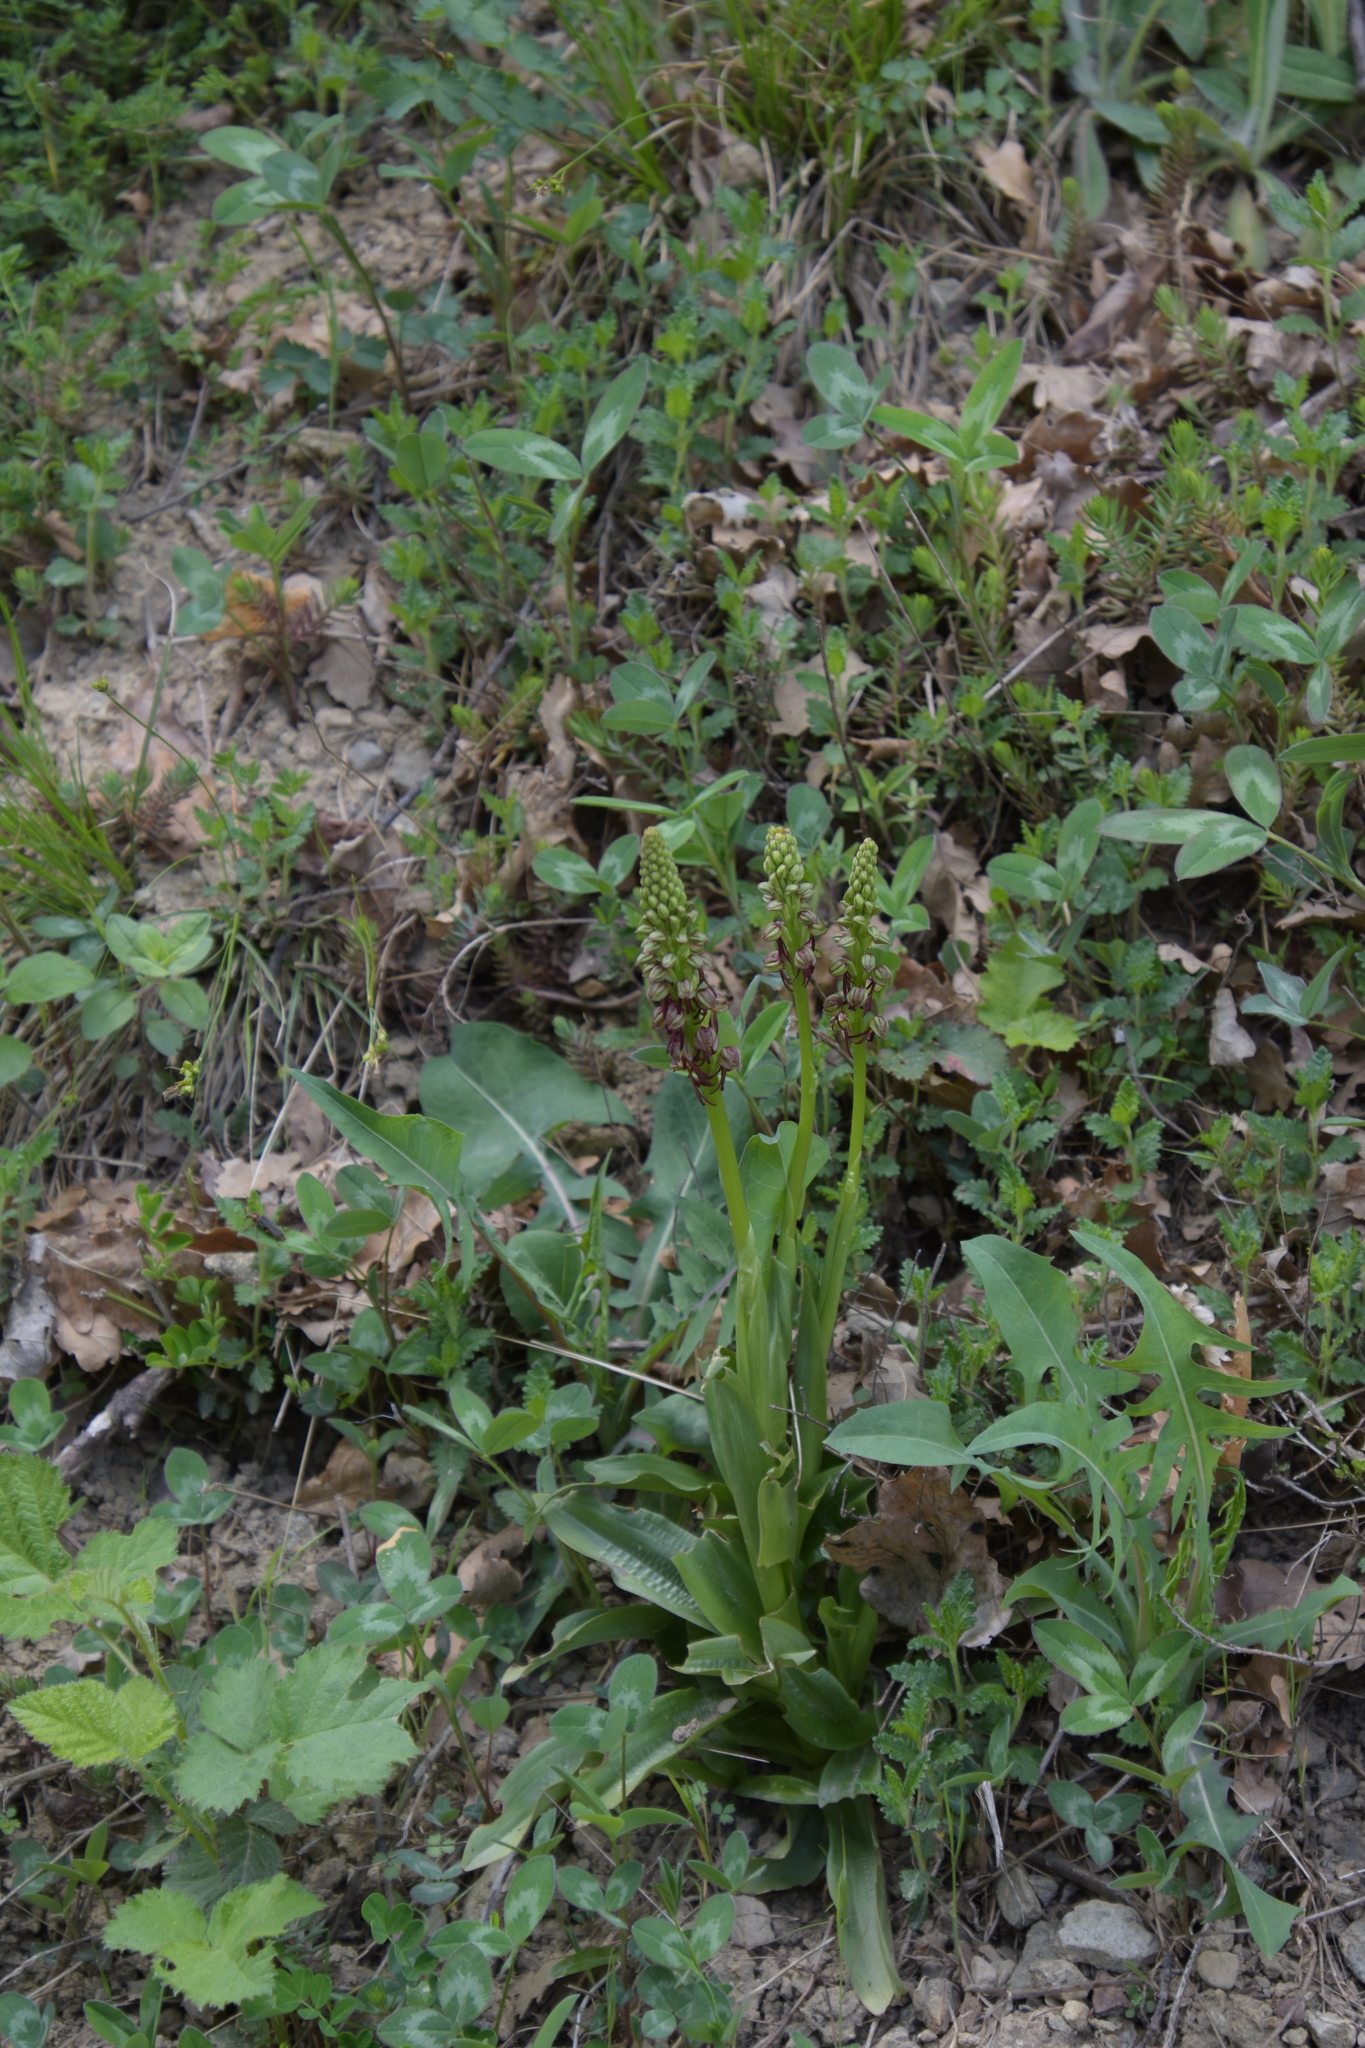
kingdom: Plantae
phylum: Tracheophyta
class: Liliopsida
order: Asparagales
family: Orchidaceae
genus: Orchis
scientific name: Orchis anthropophora
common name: Man orchid
